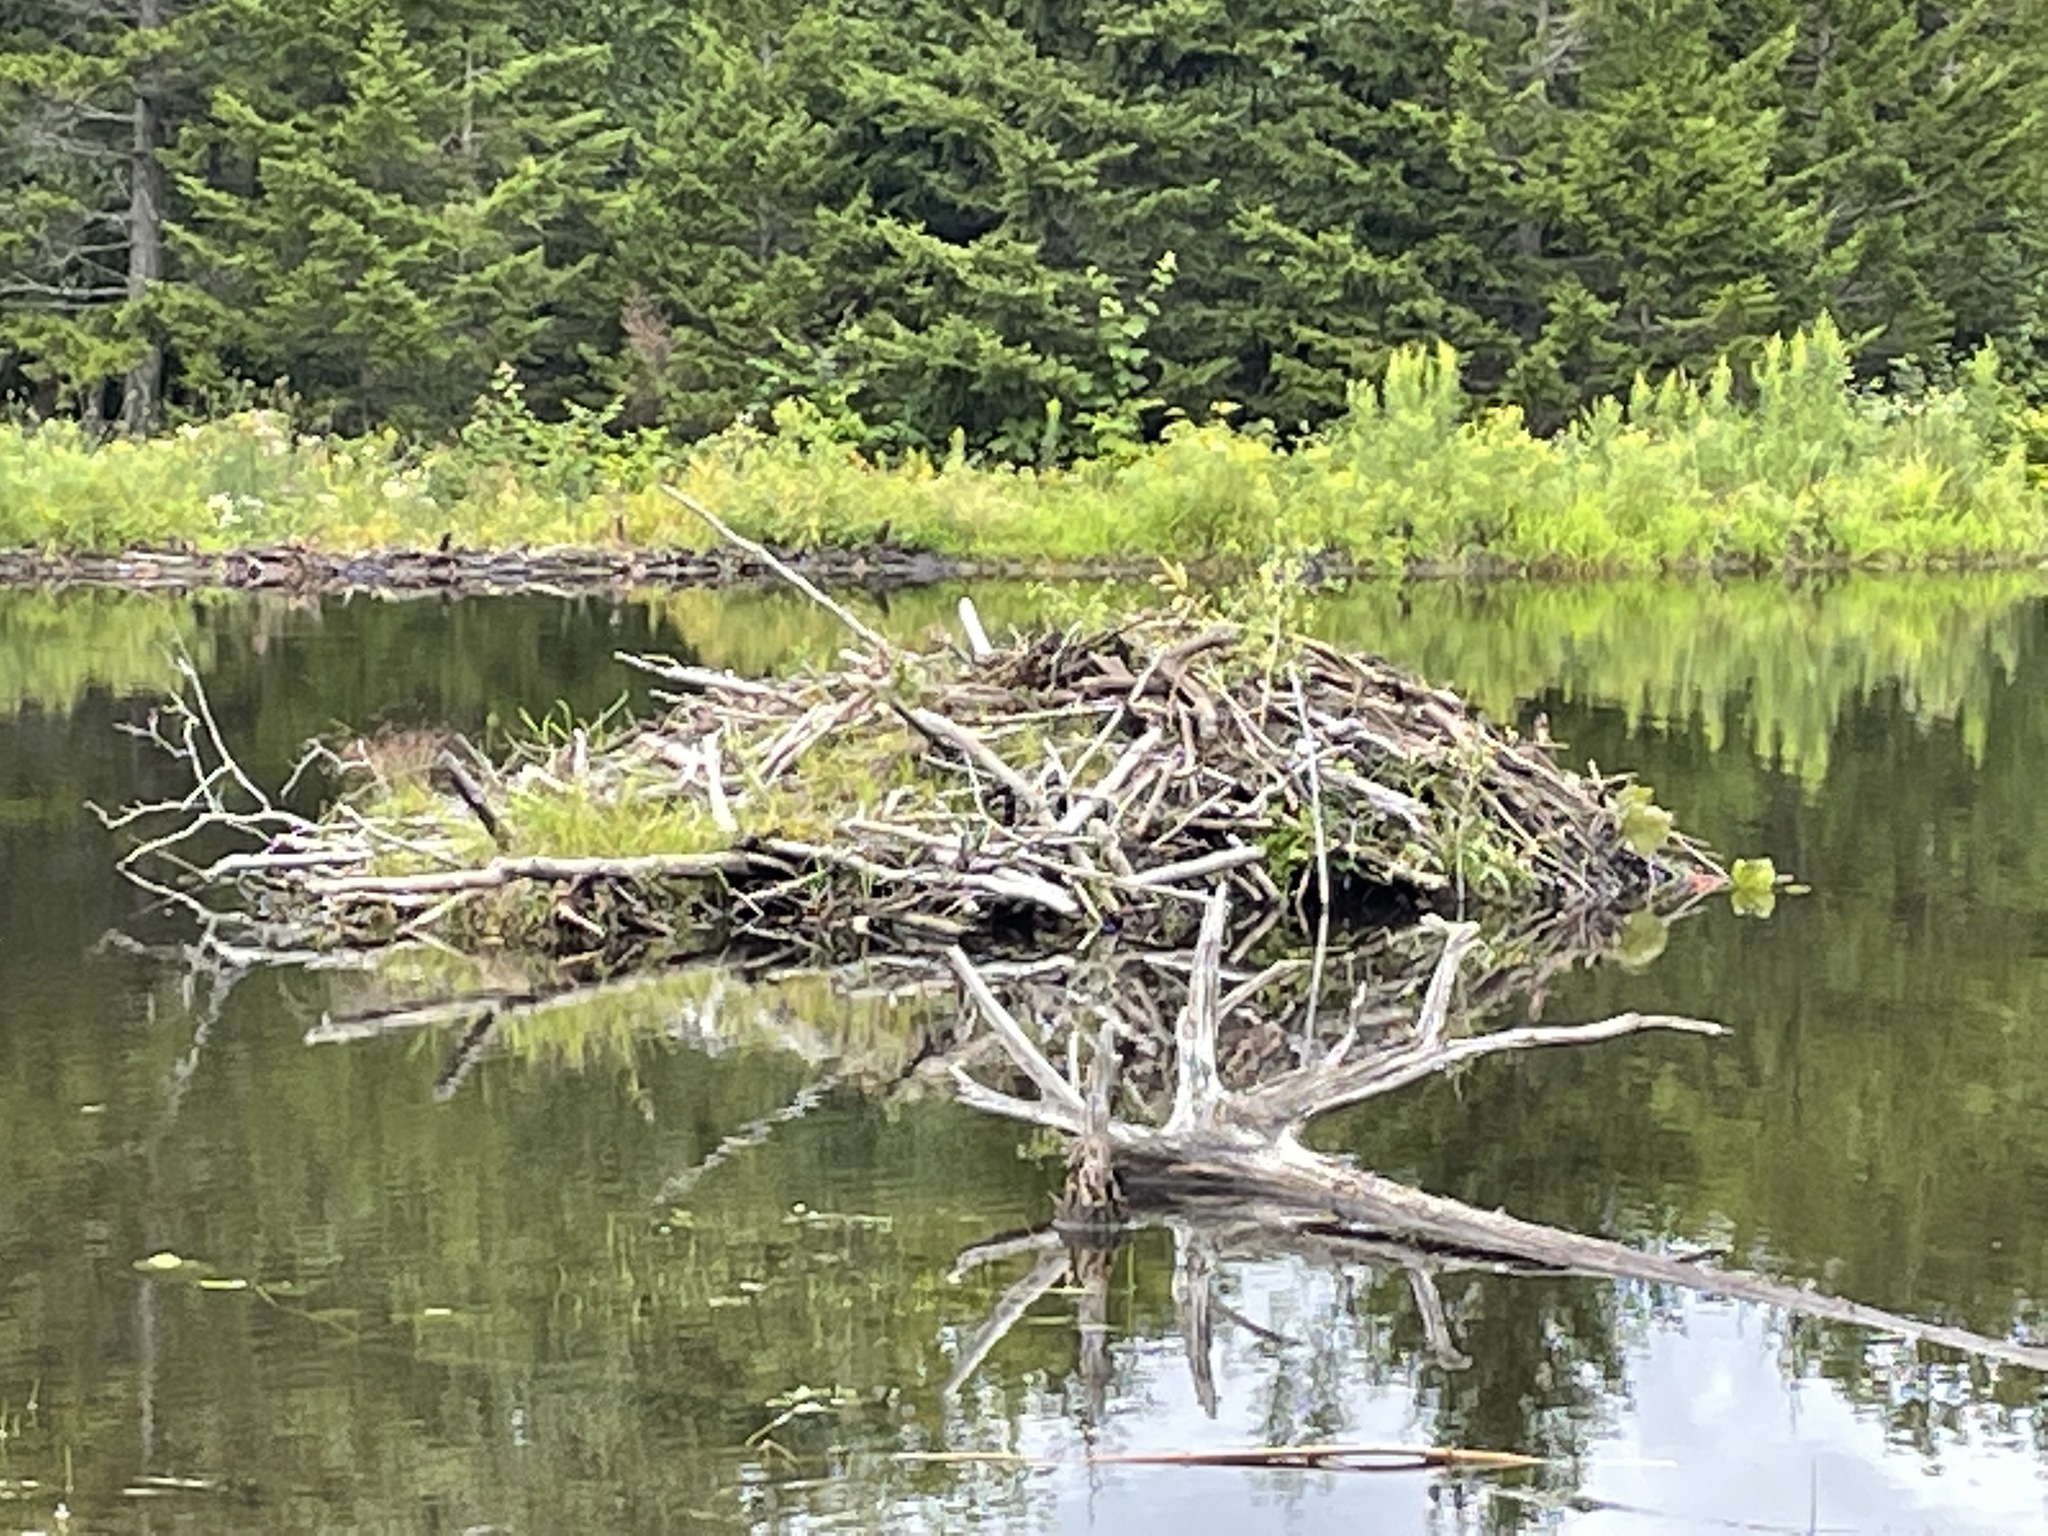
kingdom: Animalia
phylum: Chordata
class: Mammalia
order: Rodentia
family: Castoridae
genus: Castor
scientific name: Castor canadensis
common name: American beaver
